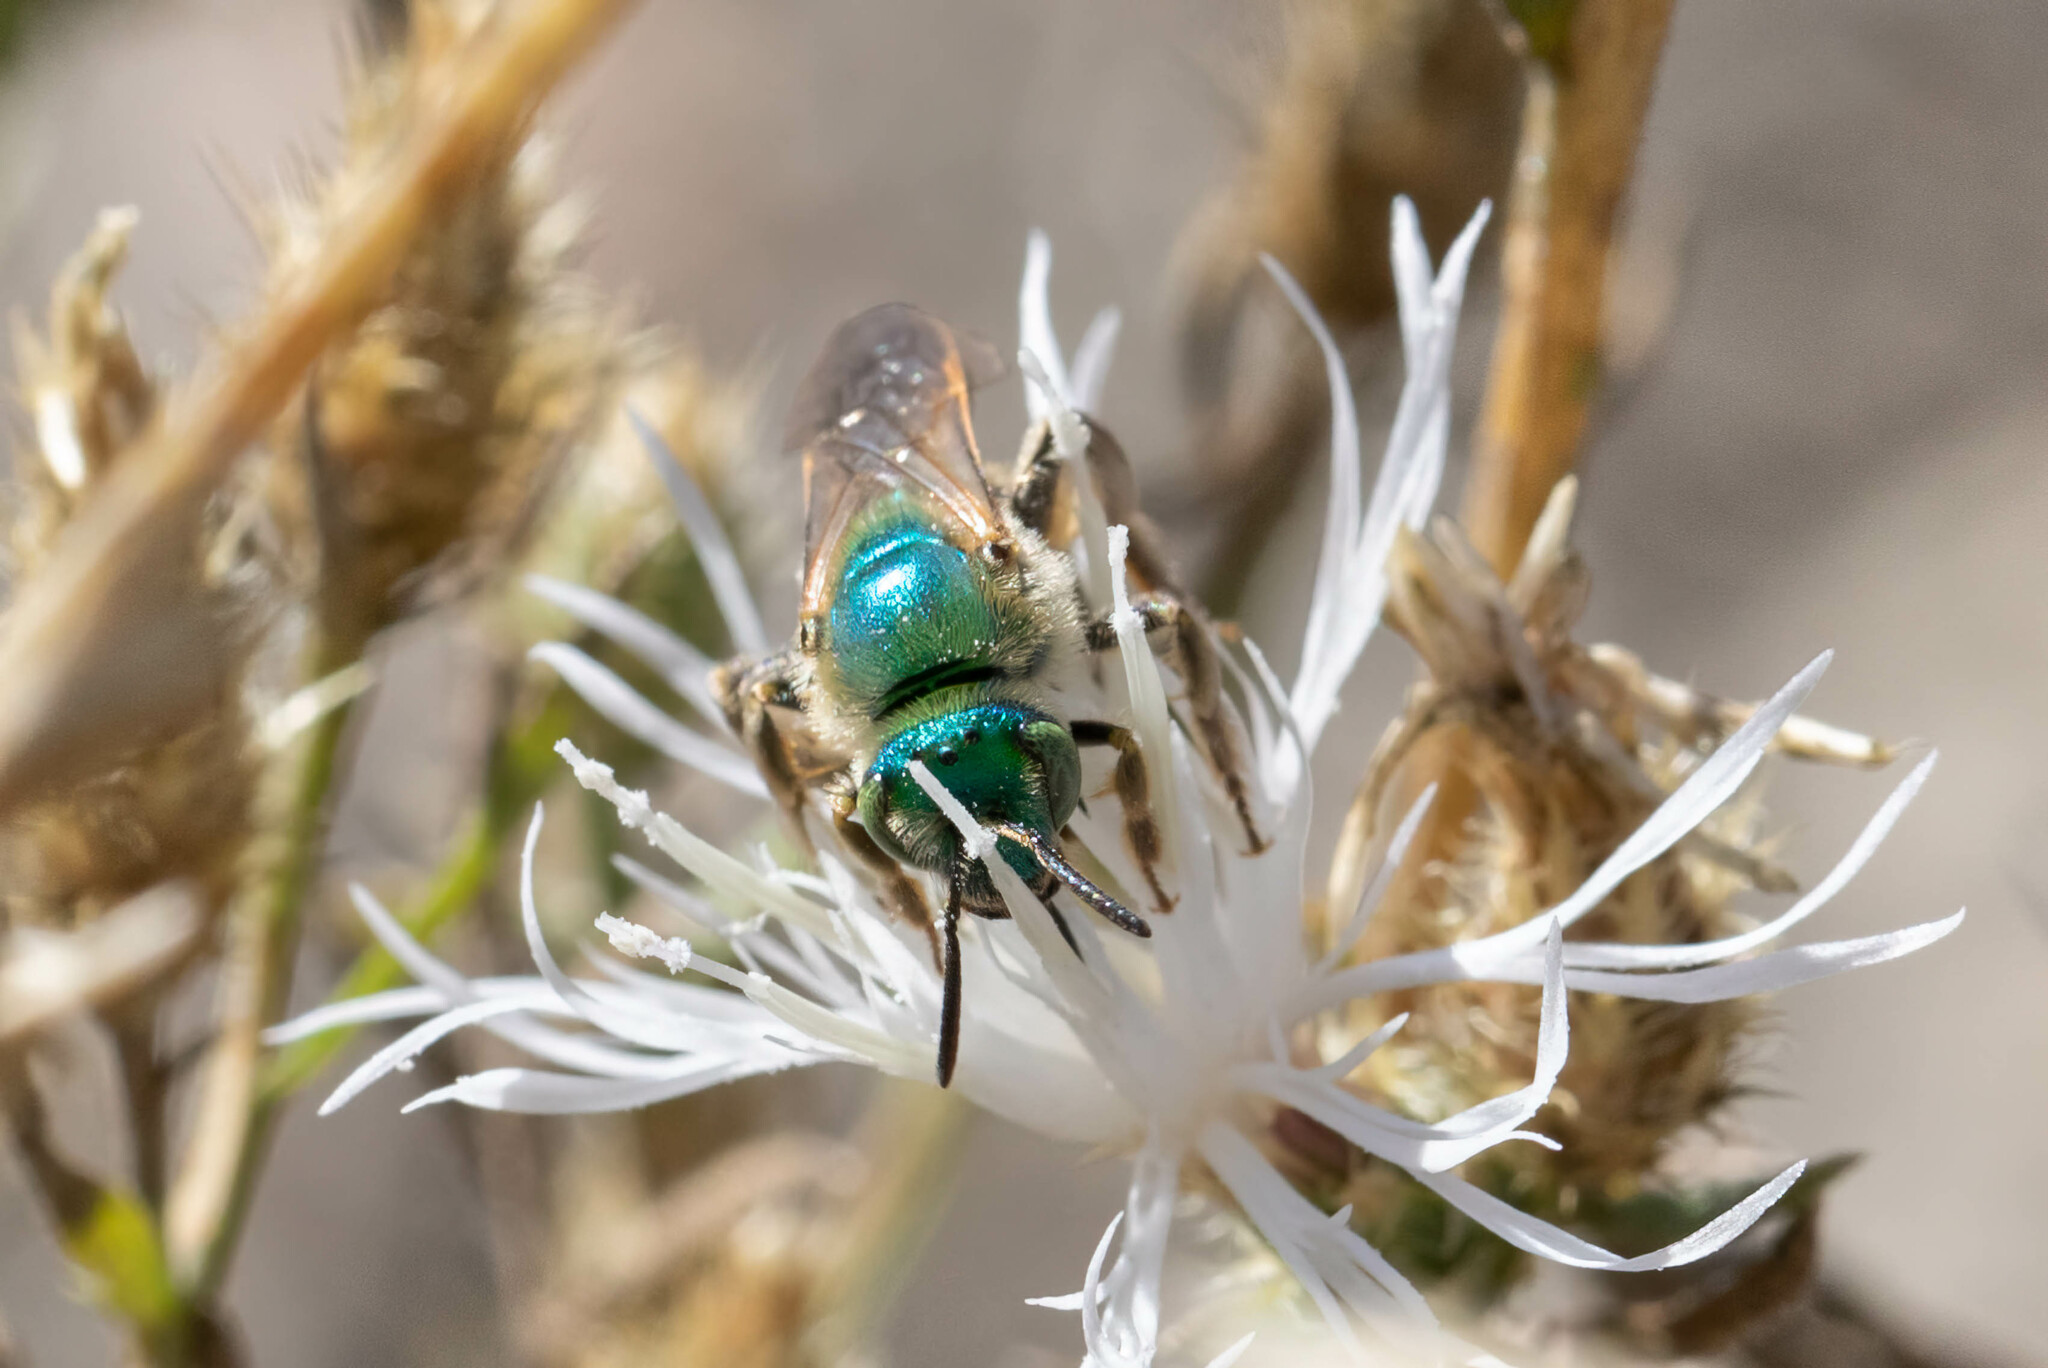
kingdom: Animalia
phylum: Arthropoda
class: Insecta
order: Hymenoptera
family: Halictidae
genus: Agapostemon
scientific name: Agapostemon texanus
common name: Texas striped sweat bee
